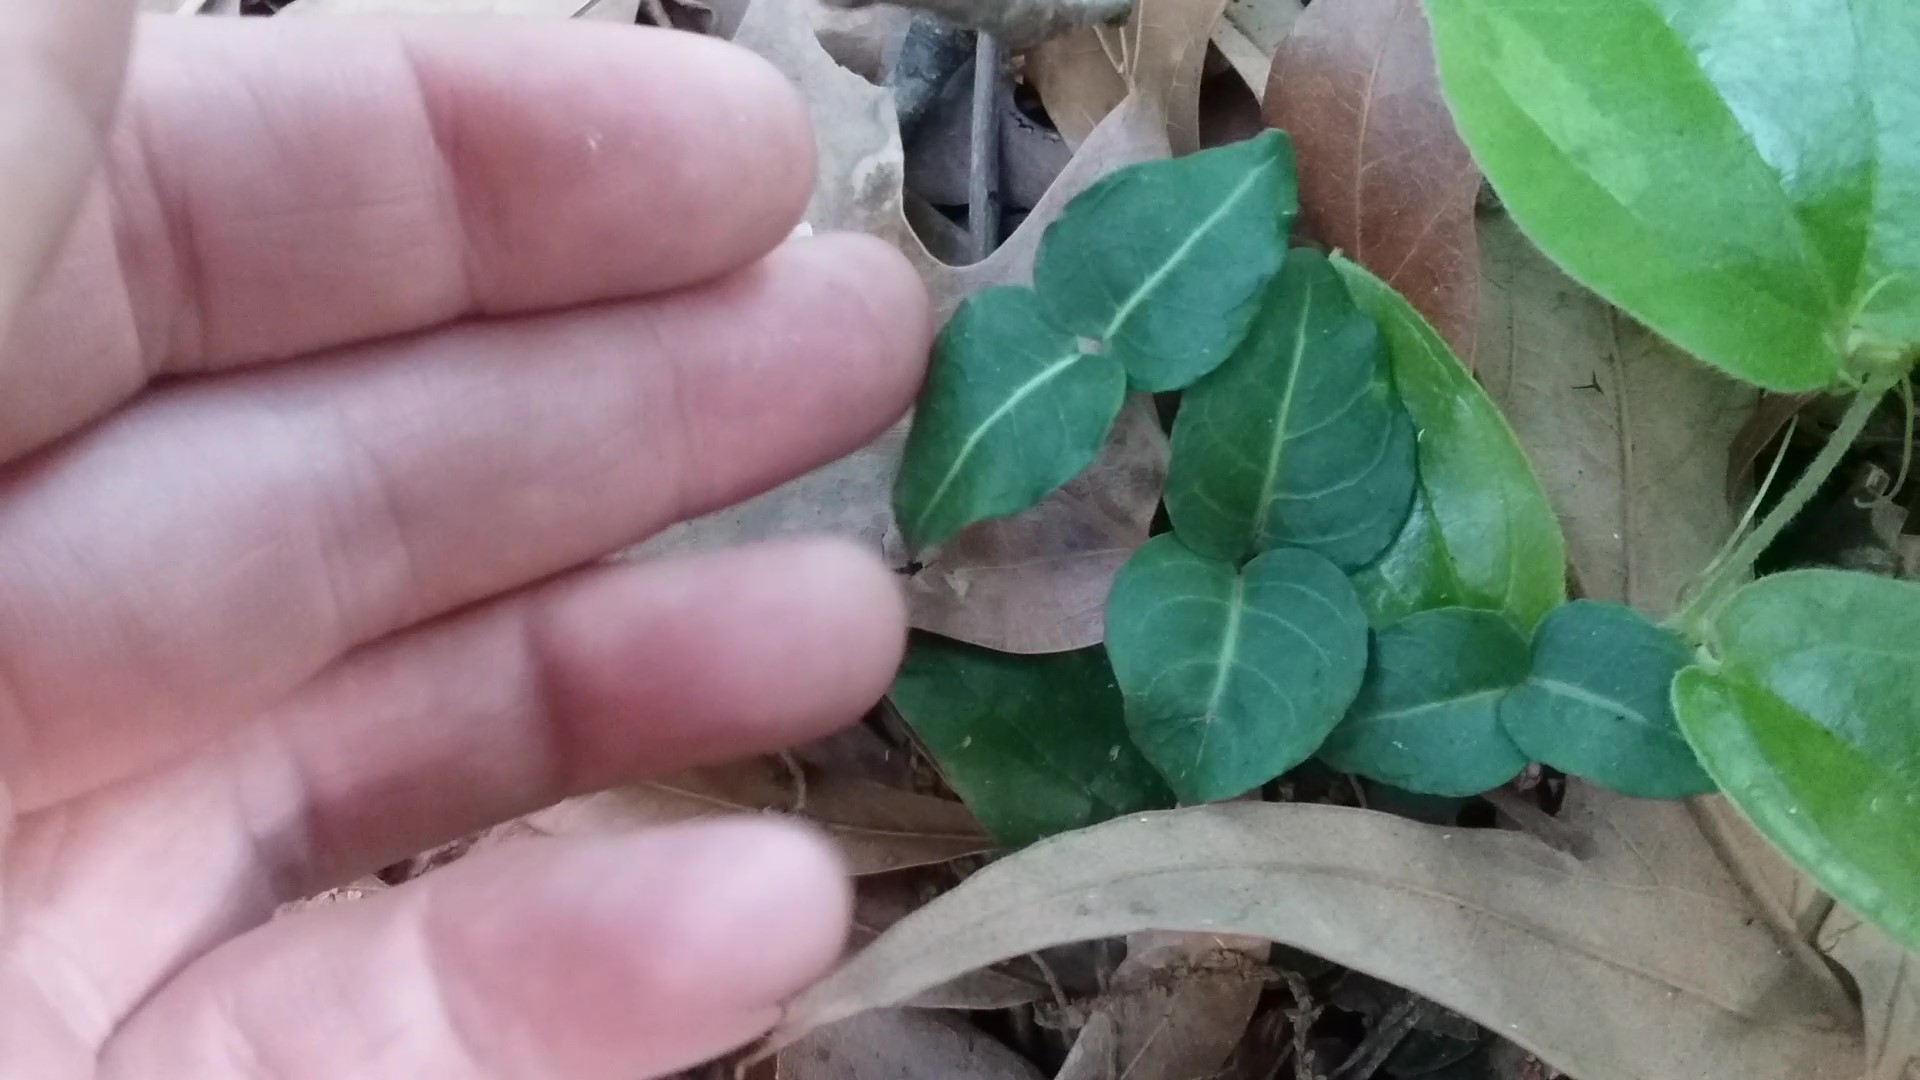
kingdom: Plantae
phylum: Tracheophyta
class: Magnoliopsida
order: Gentianales
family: Rubiaceae
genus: Mitchella
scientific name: Mitchella repens
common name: Partridge-berry
